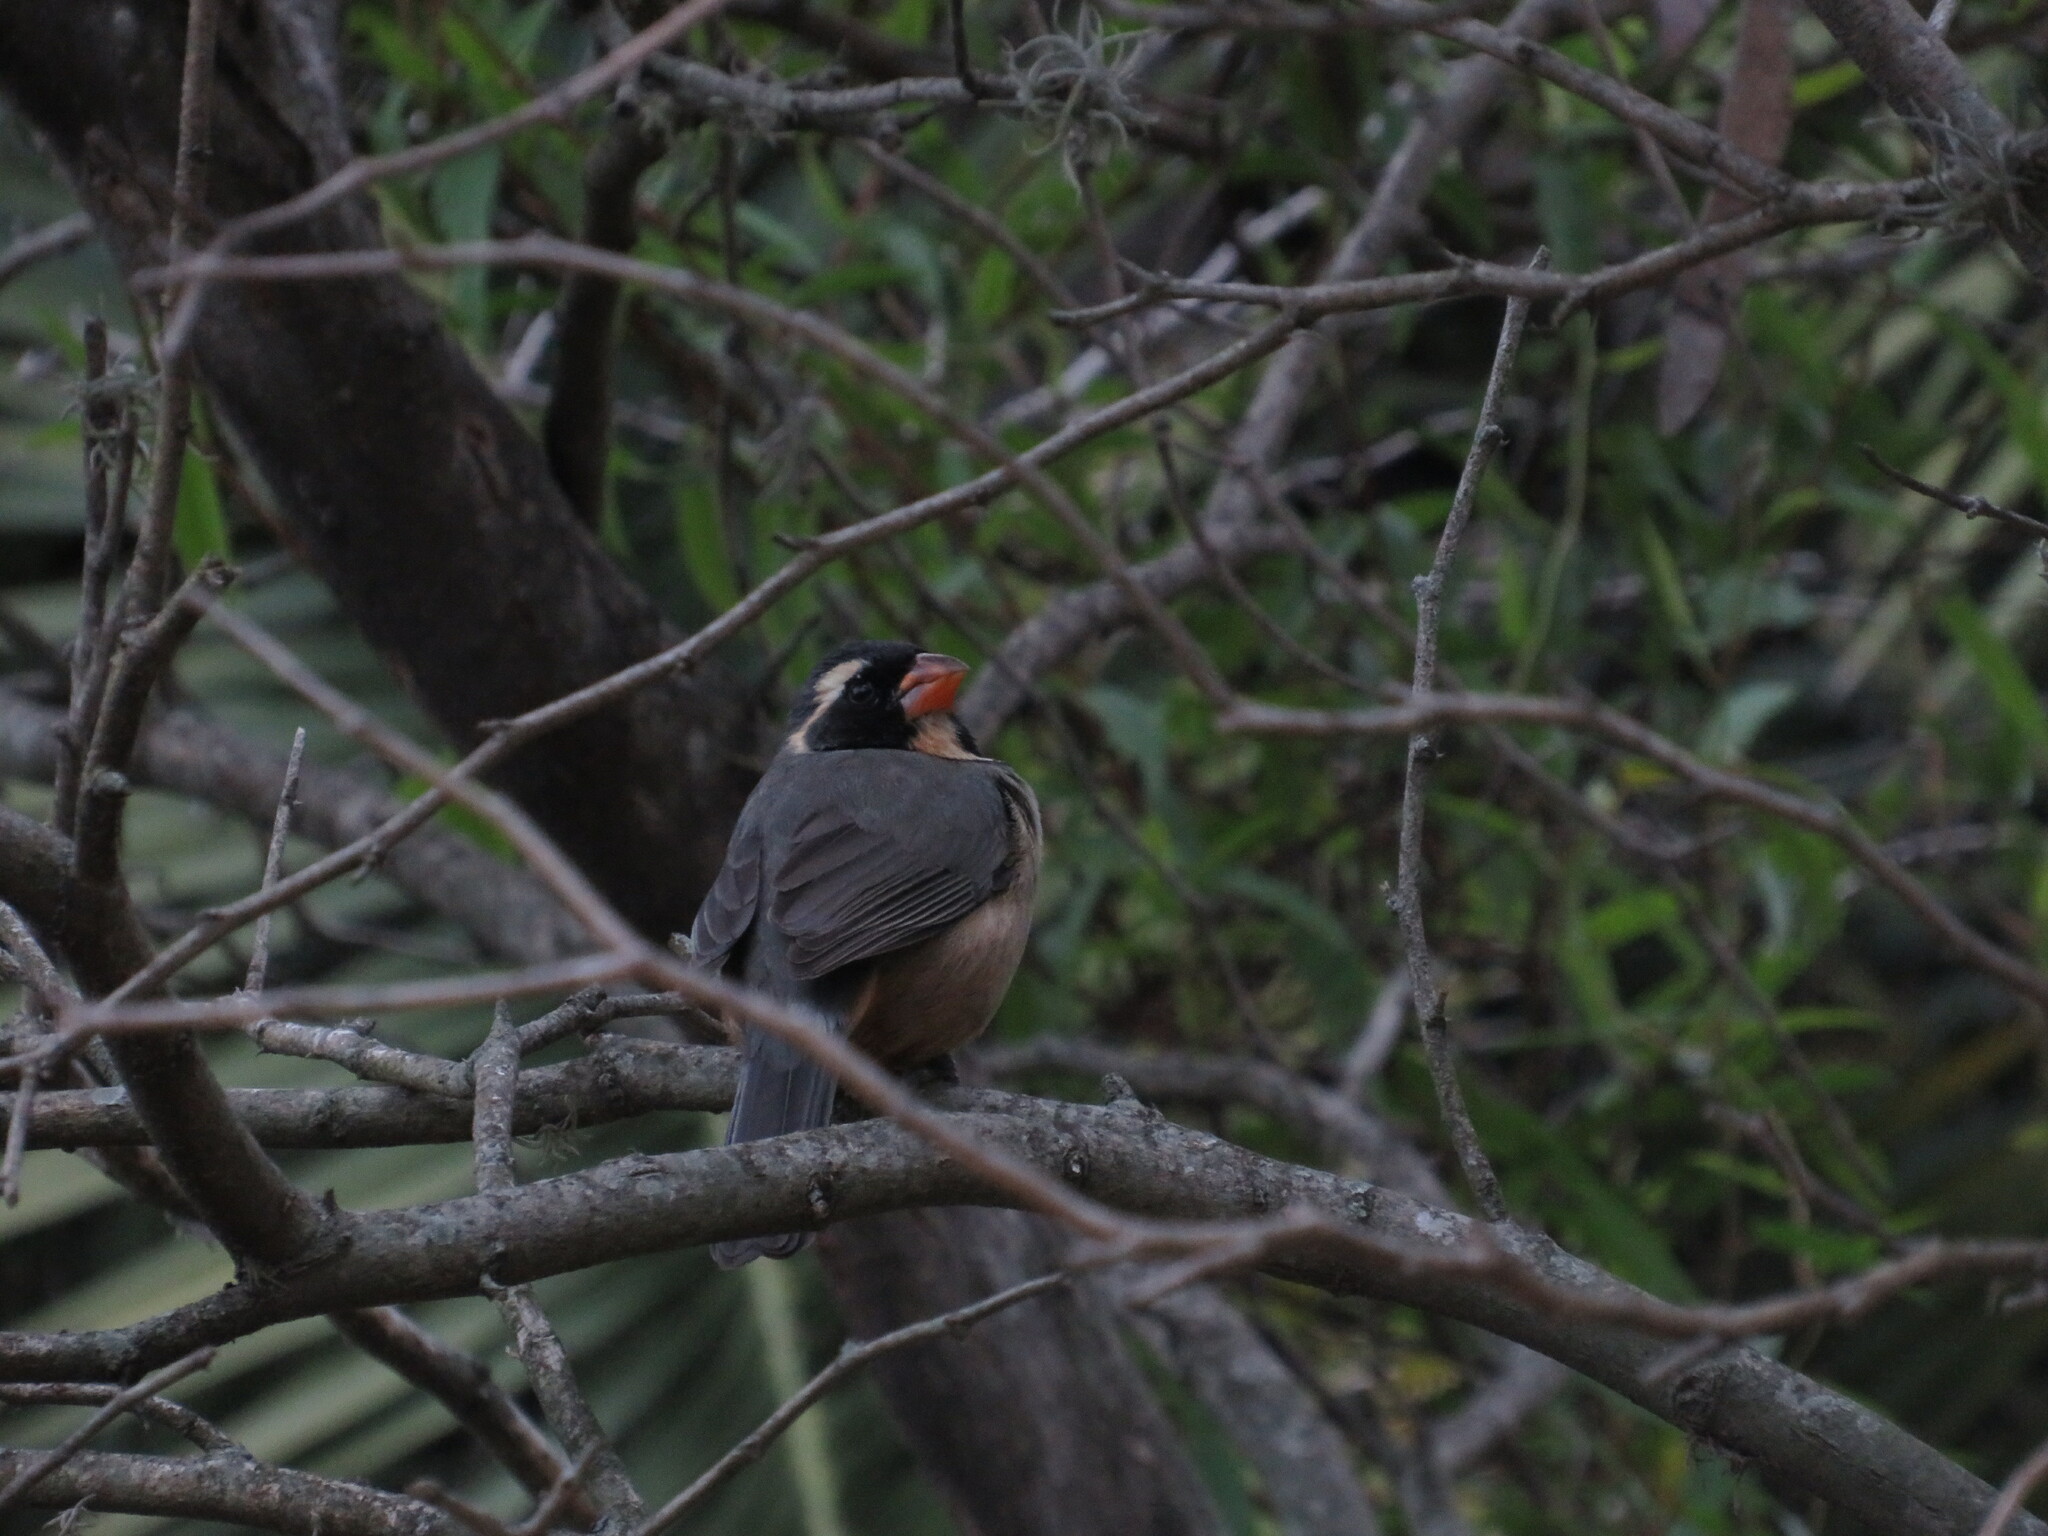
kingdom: Animalia
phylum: Chordata
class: Aves
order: Passeriformes
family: Thraupidae
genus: Saltator
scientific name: Saltator aurantiirostris
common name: Golden-billed saltator
